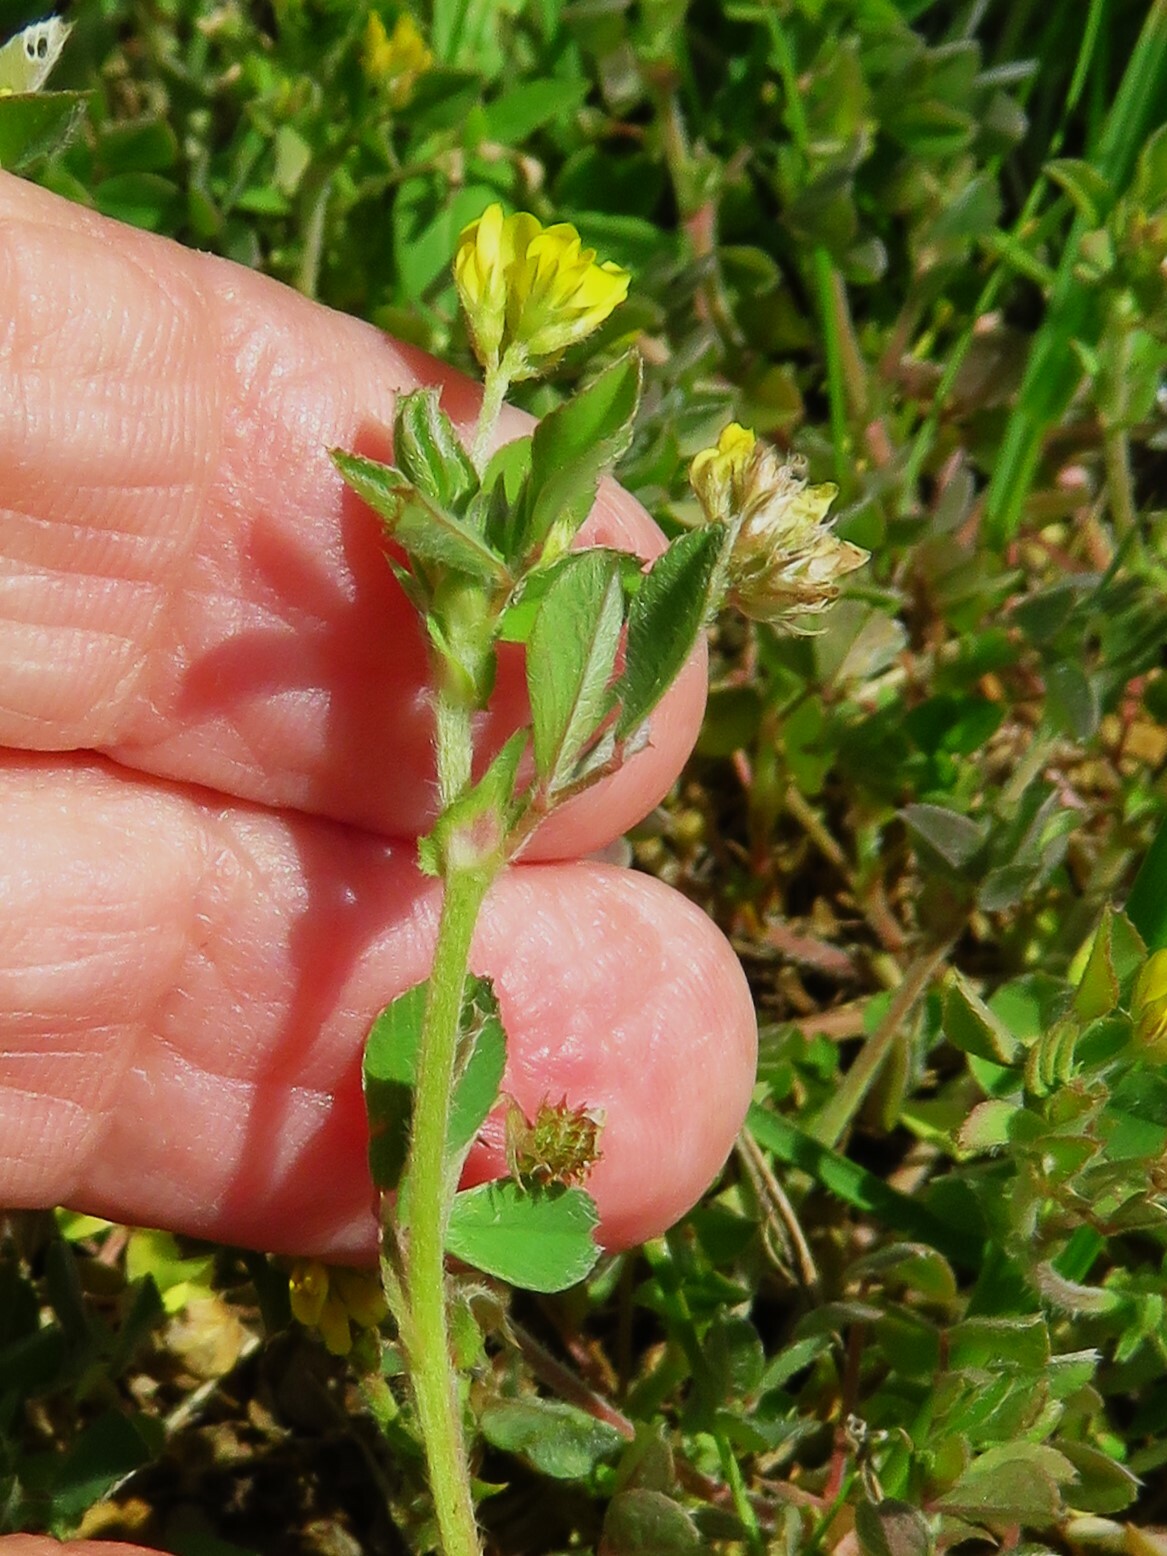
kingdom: Plantae
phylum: Tracheophyta
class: Magnoliopsida
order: Fabales
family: Fabaceae
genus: Medicago
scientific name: Medicago minima
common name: Little bur-clover
